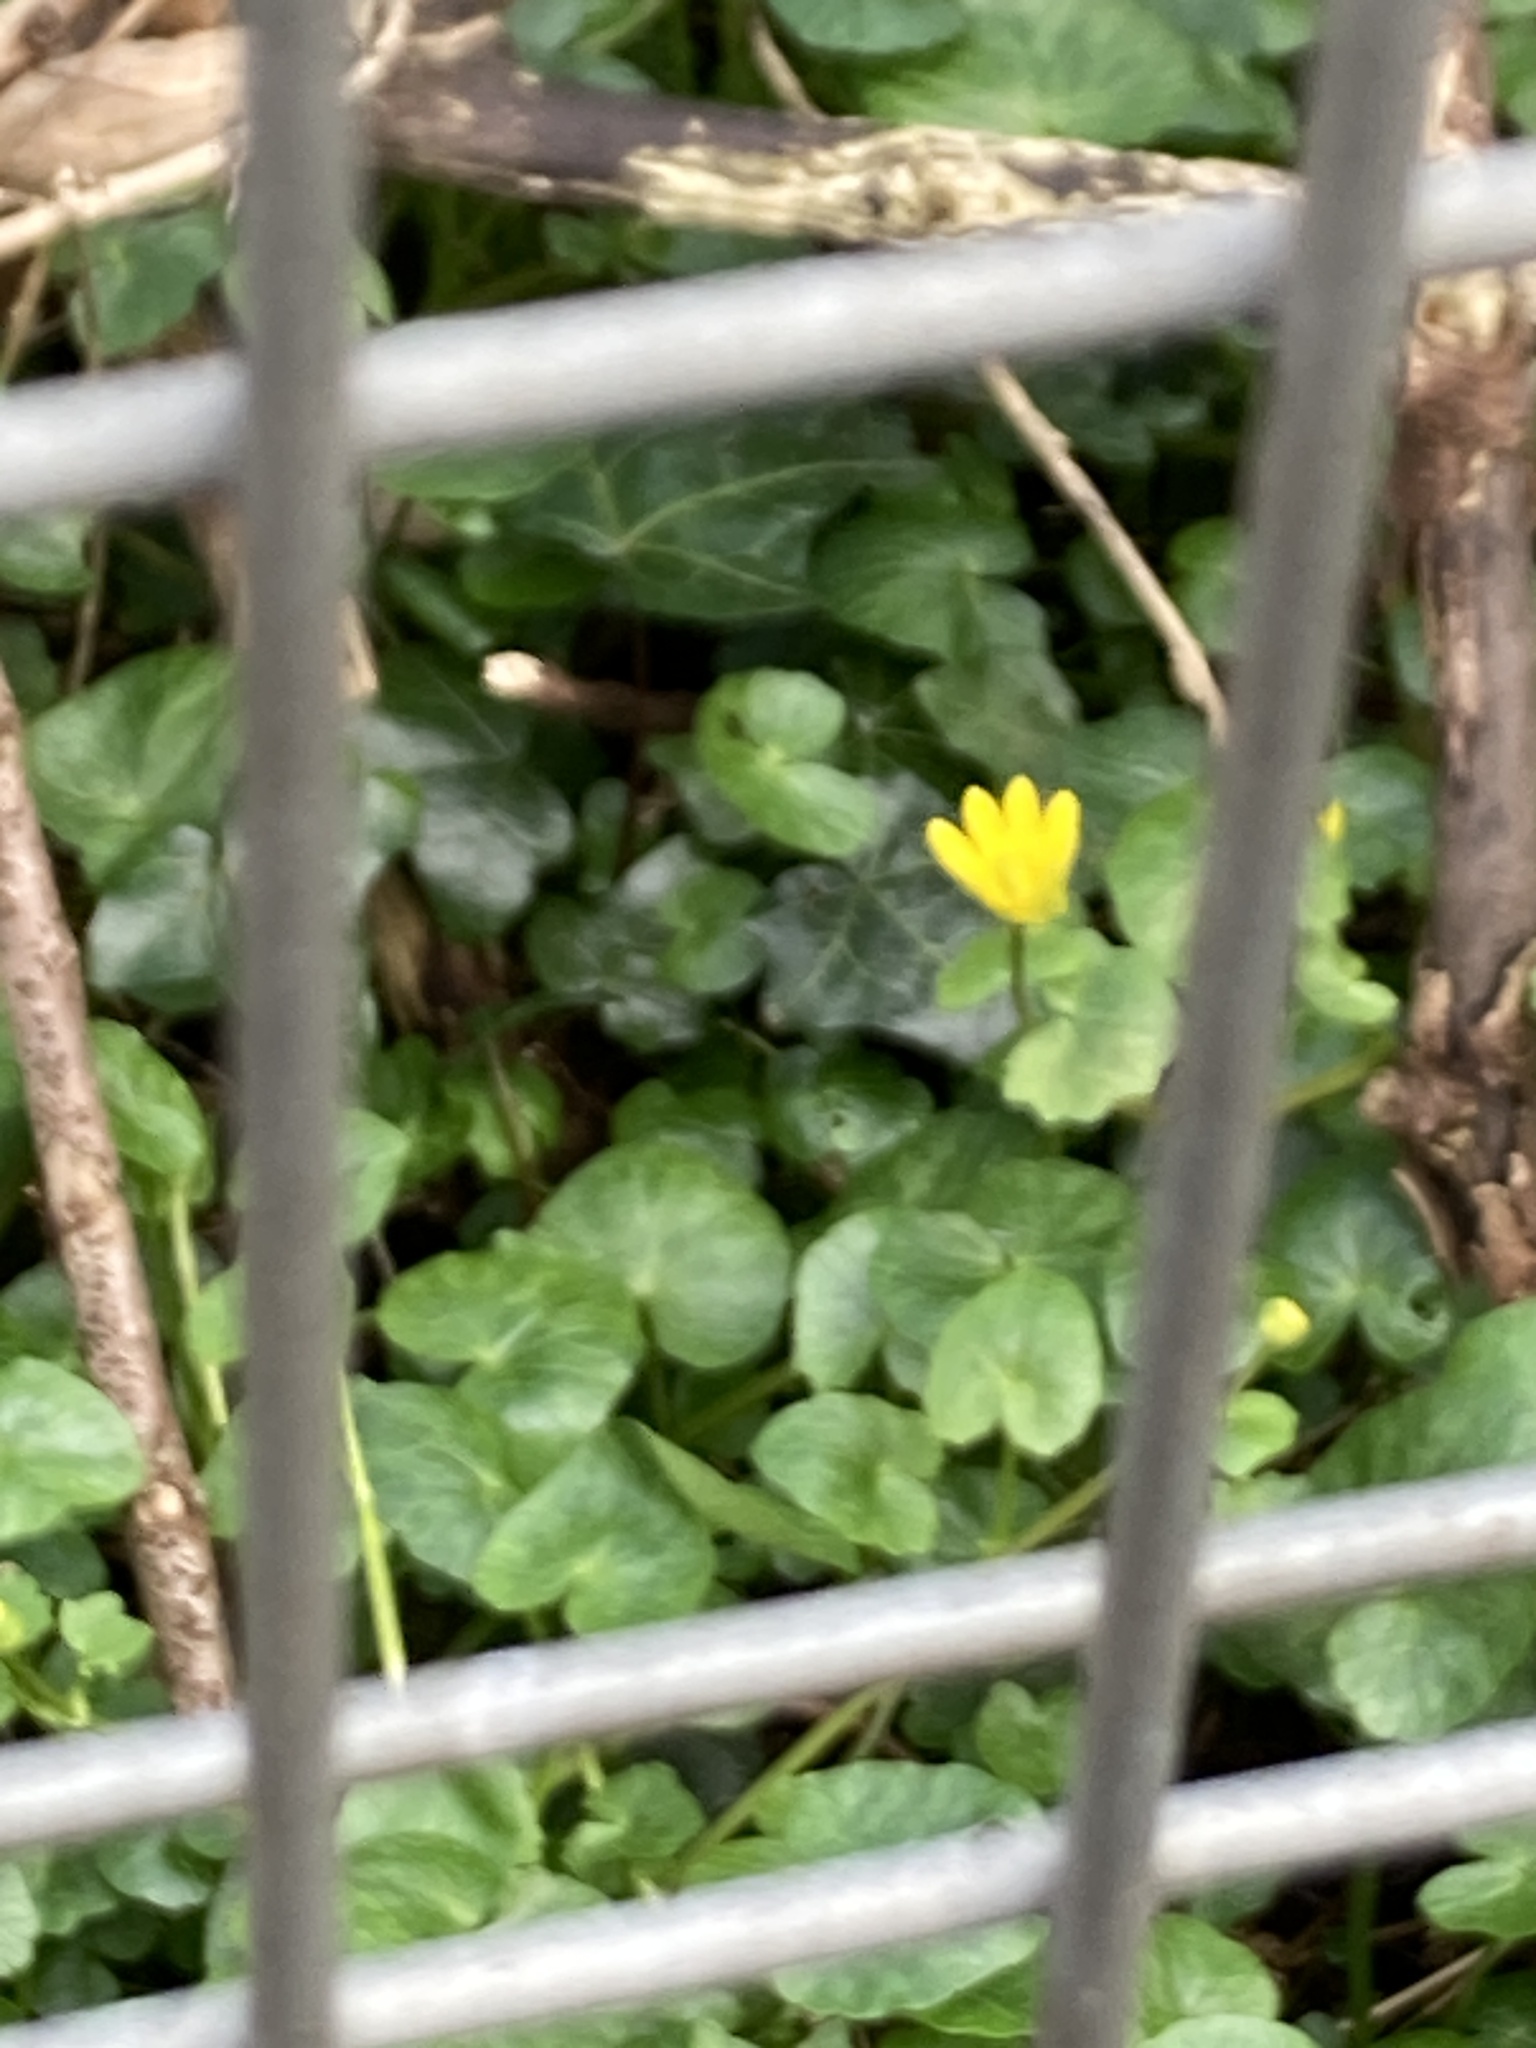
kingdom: Plantae
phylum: Tracheophyta
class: Magnoliopsida
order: Ranunculales
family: Ranunculaceae
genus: Ficaria
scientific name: Ficaria verna
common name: Lesser celandine
